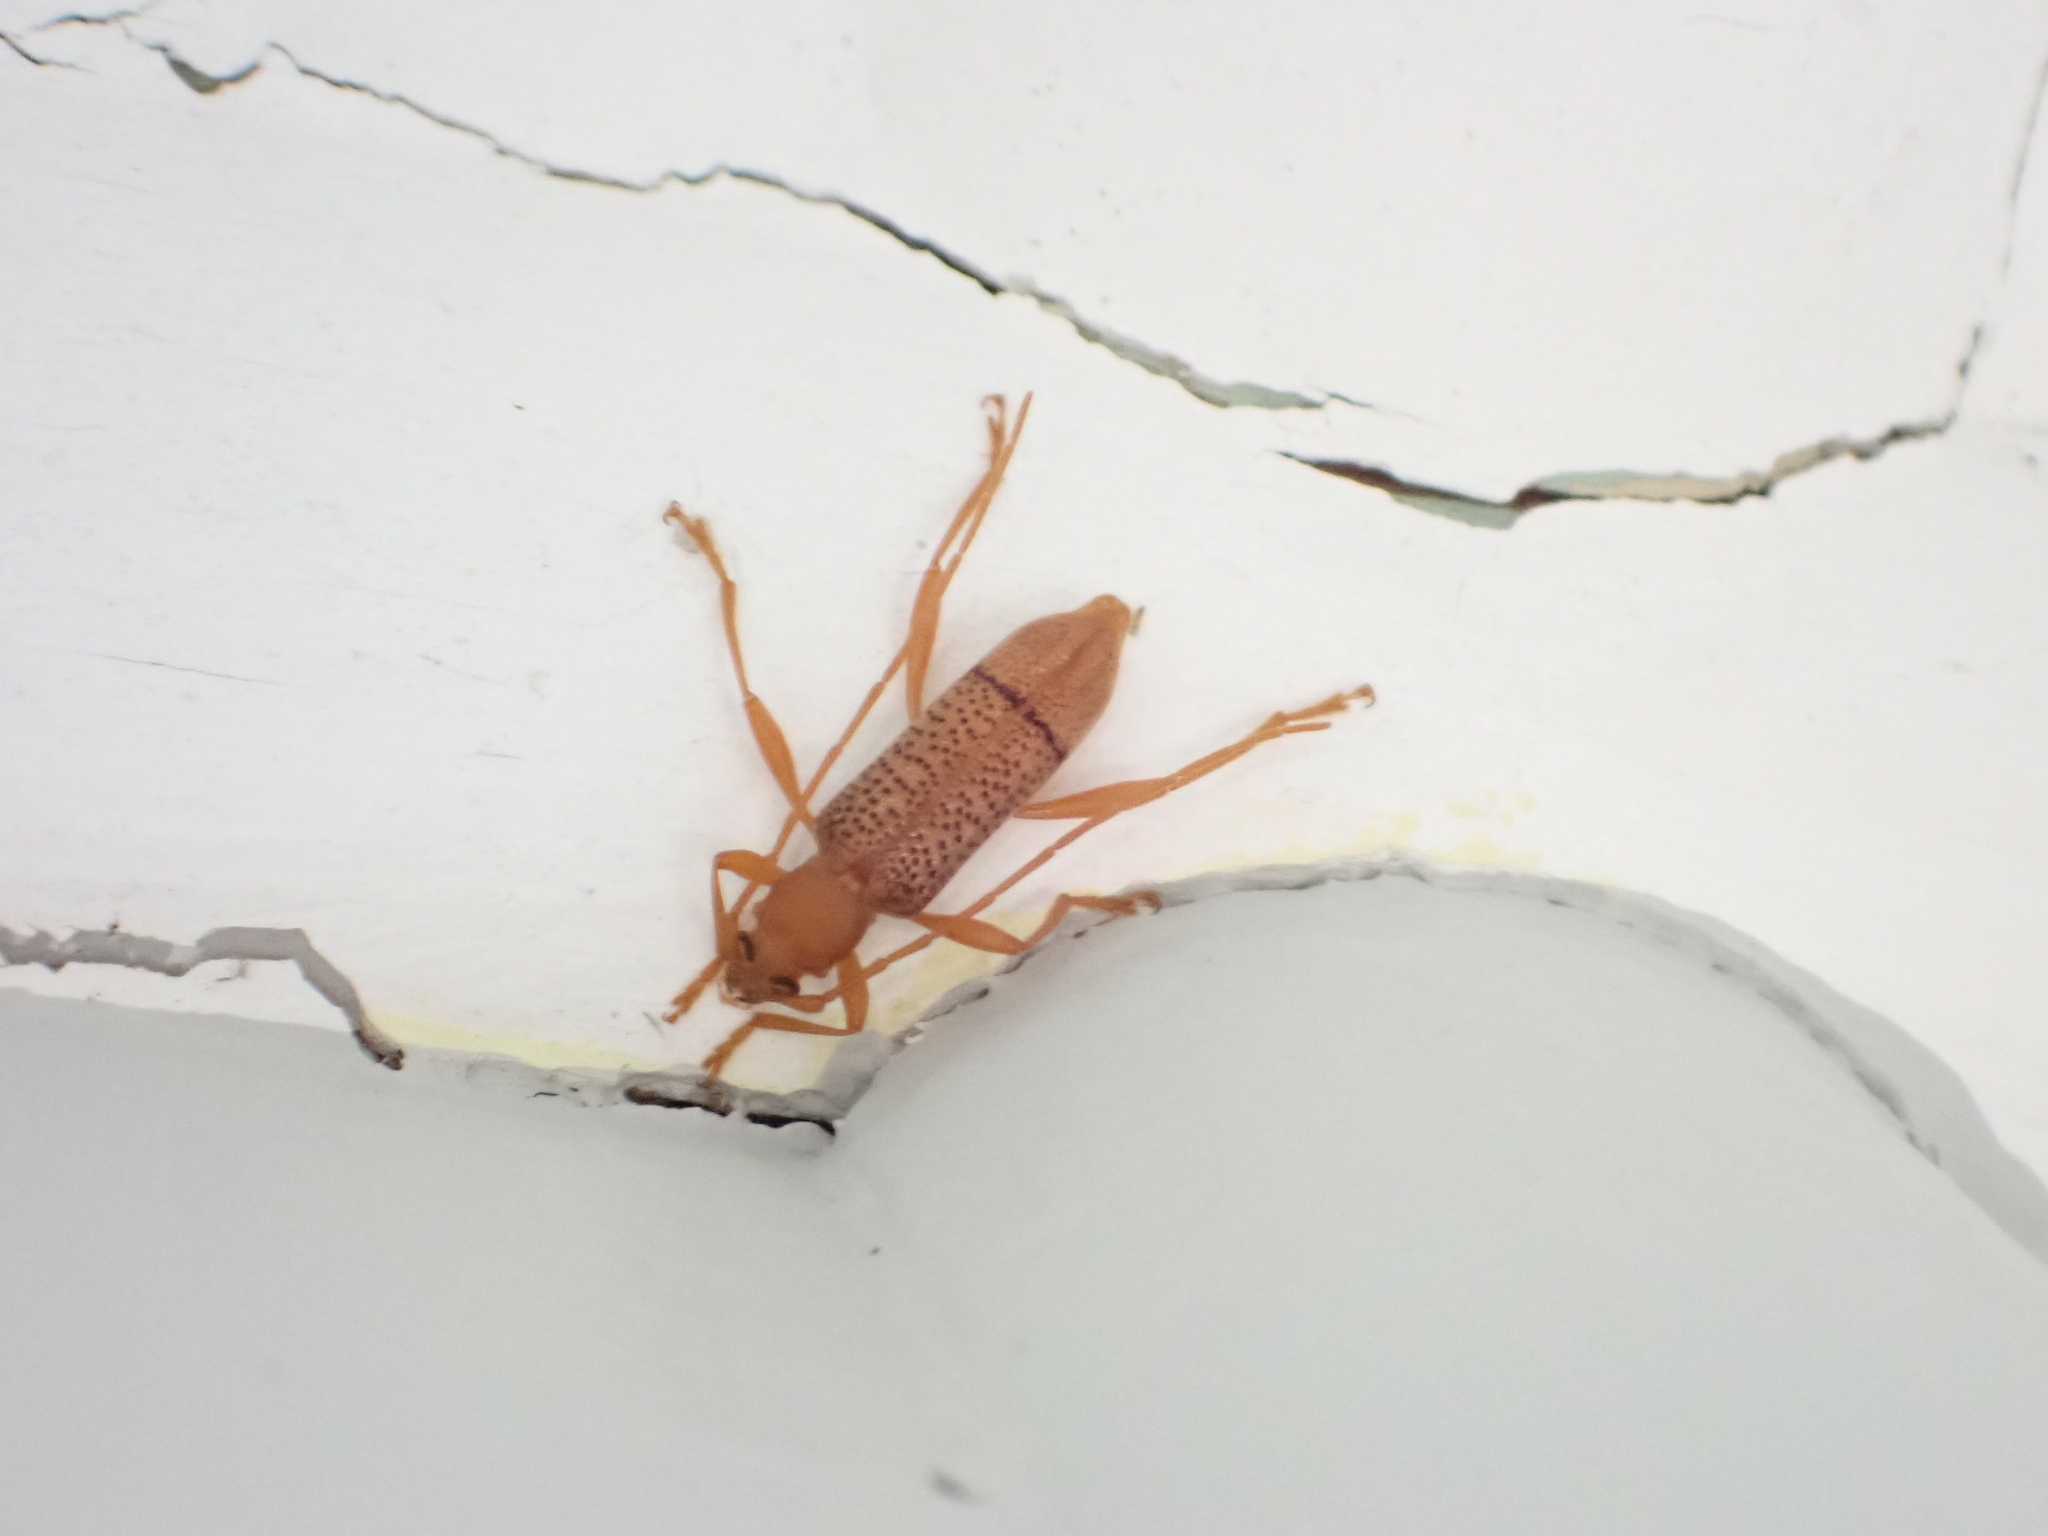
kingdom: Animalia
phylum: Arthropoda
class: Insecta
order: Coleoptera
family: Cerambycidae
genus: Xuthodes
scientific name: Xuthodes punctipennis
